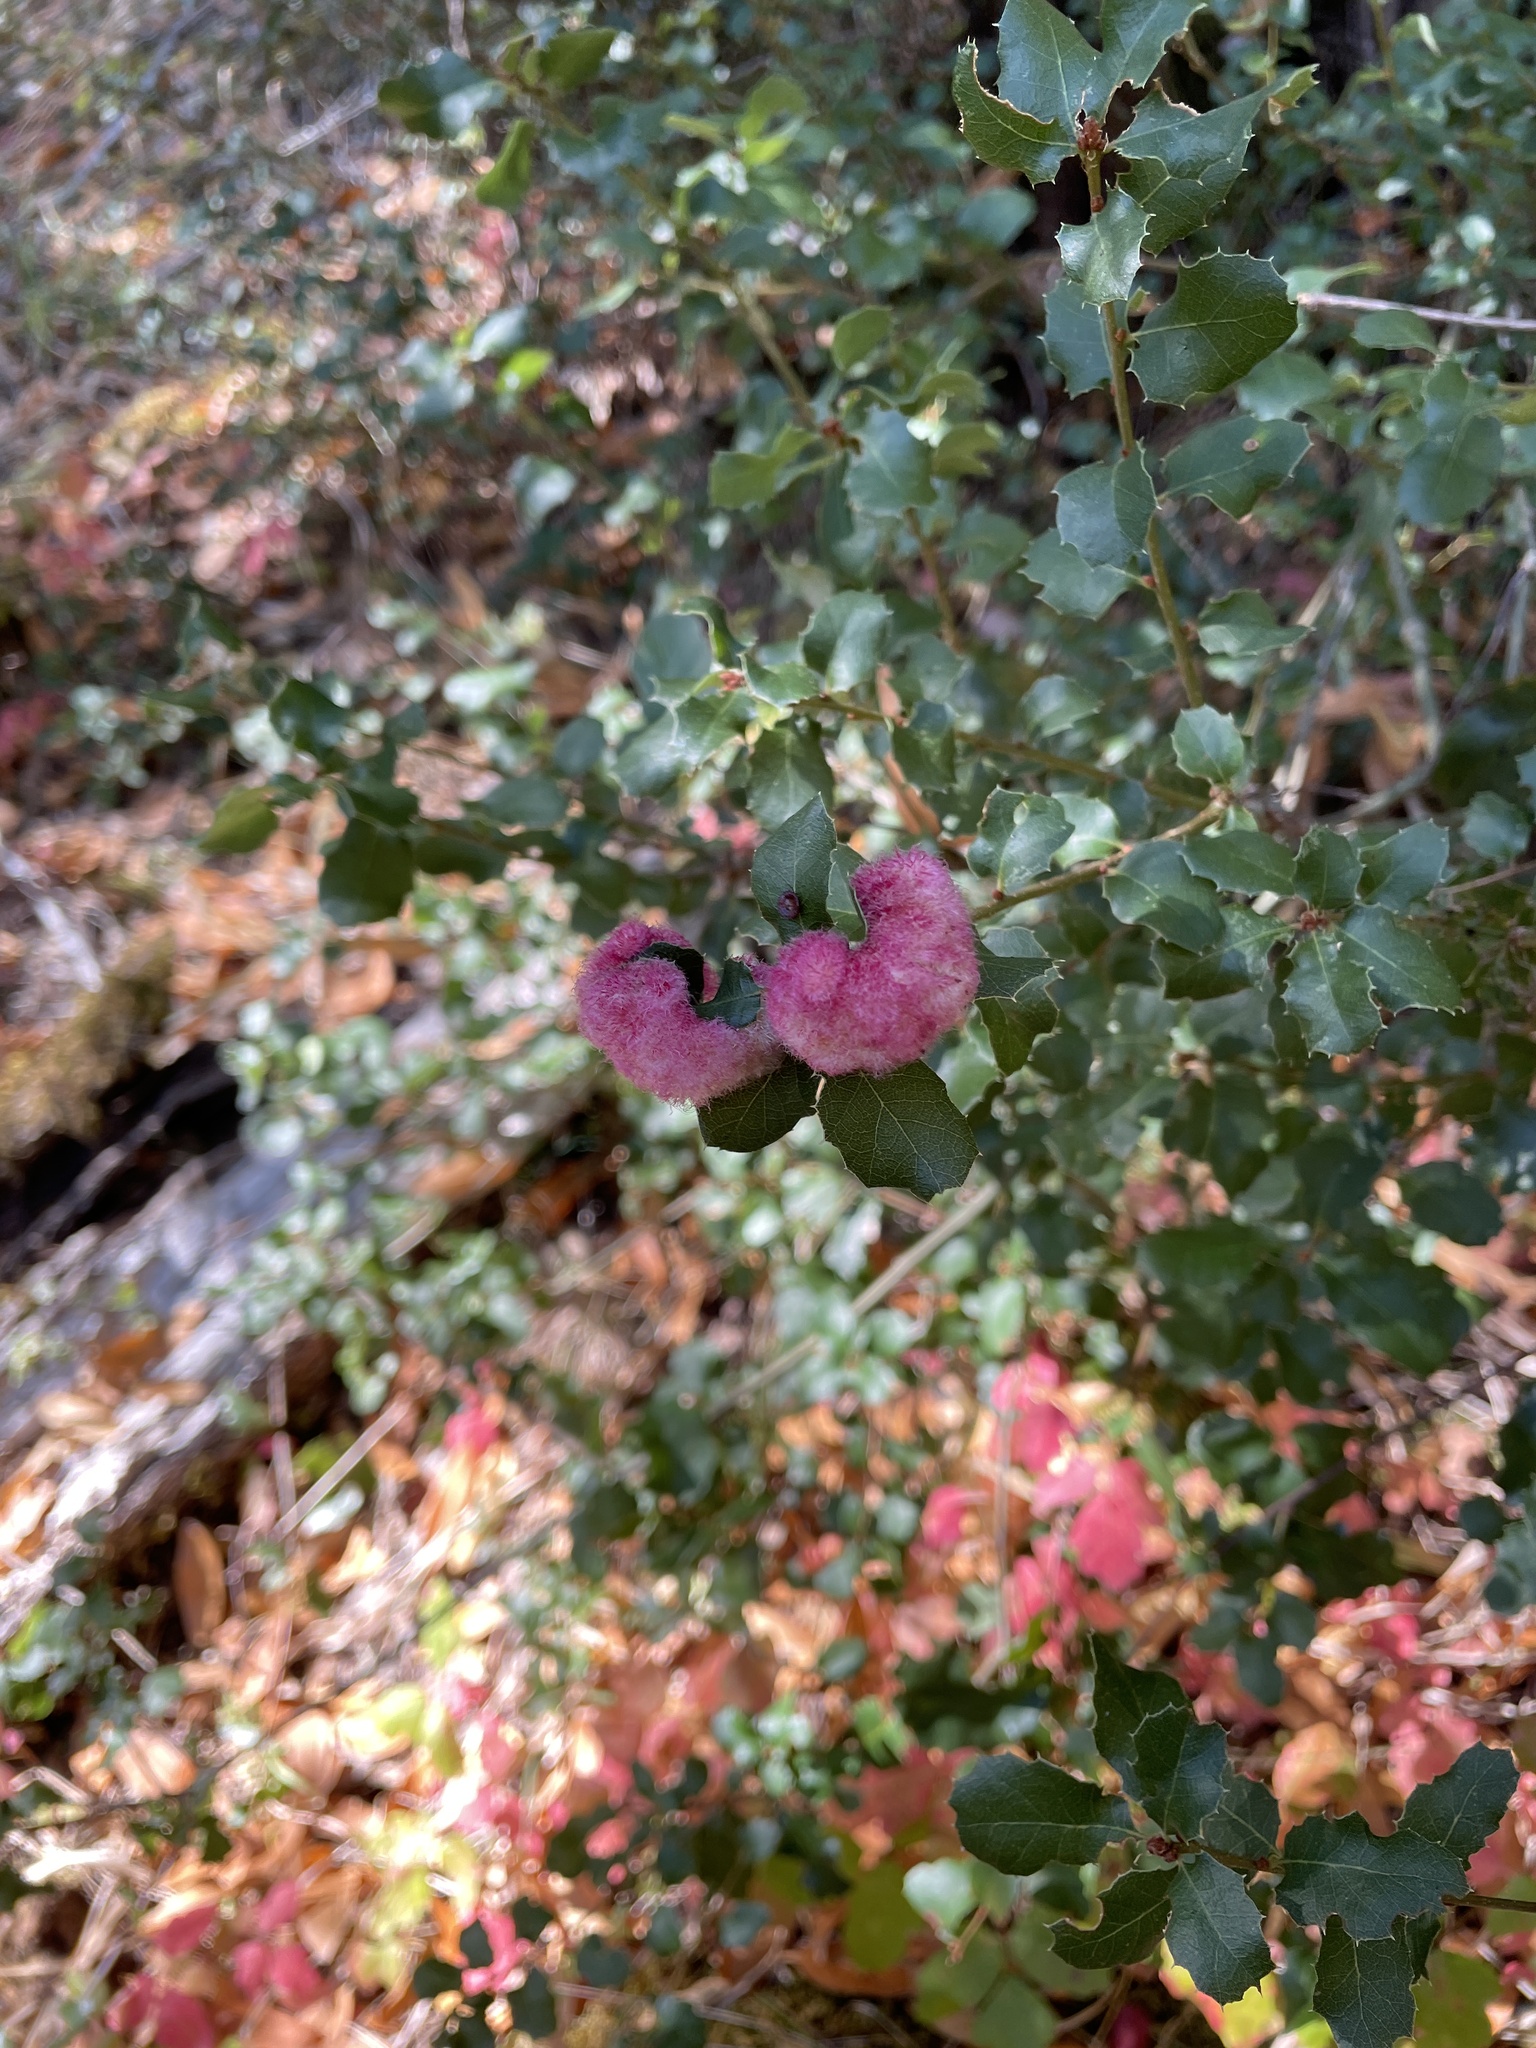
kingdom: Animalia
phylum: Arthropoda
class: Insecta
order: Hymenoptera
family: Cynipidae
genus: Andricus
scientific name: Andricus
